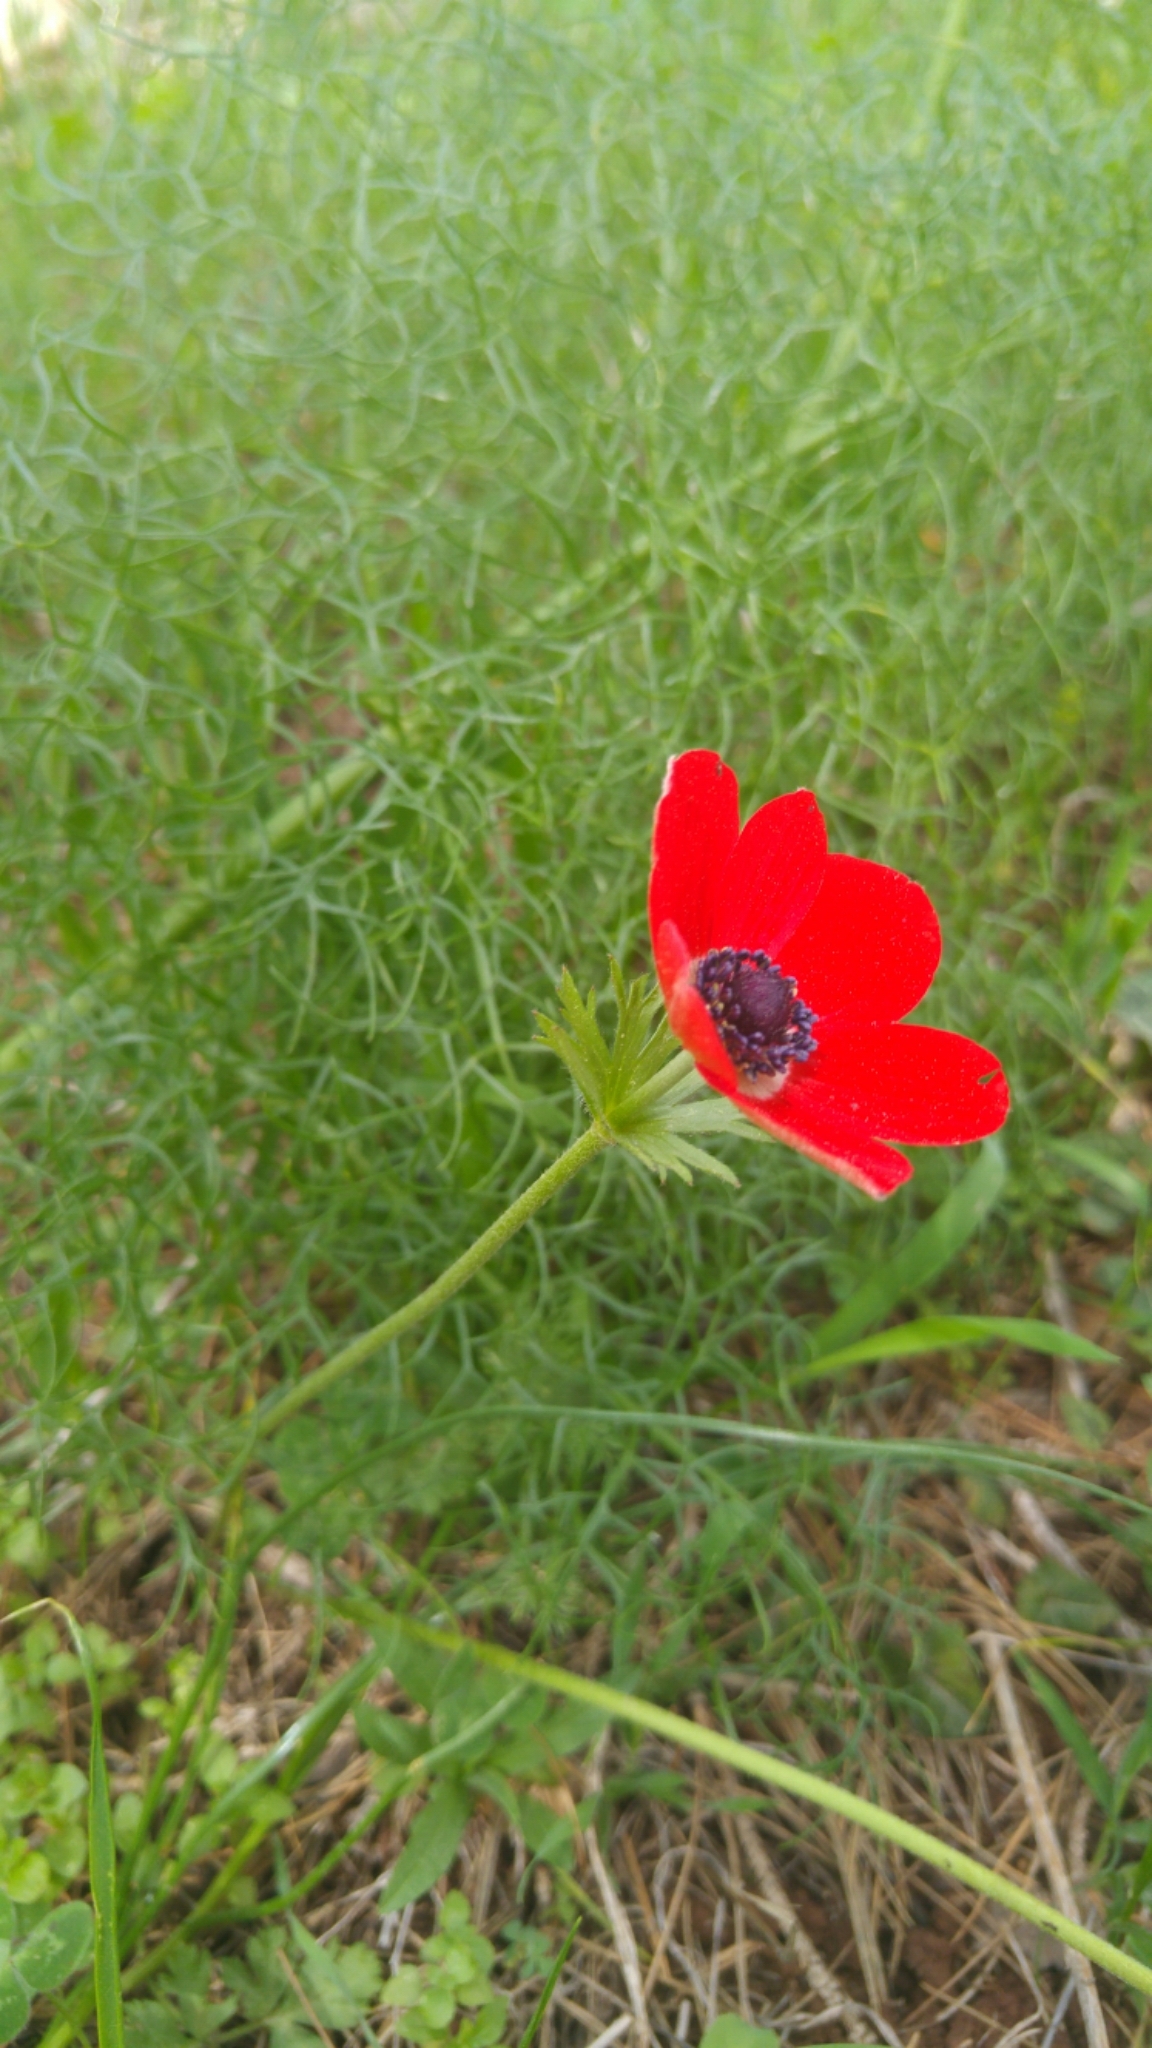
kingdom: Plantae
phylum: Tracheophyta
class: Magnoliopsida
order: Ranunculales
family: Ranunculaceae
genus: Anemone
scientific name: Anemone coronaria
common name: Poppy anemone
